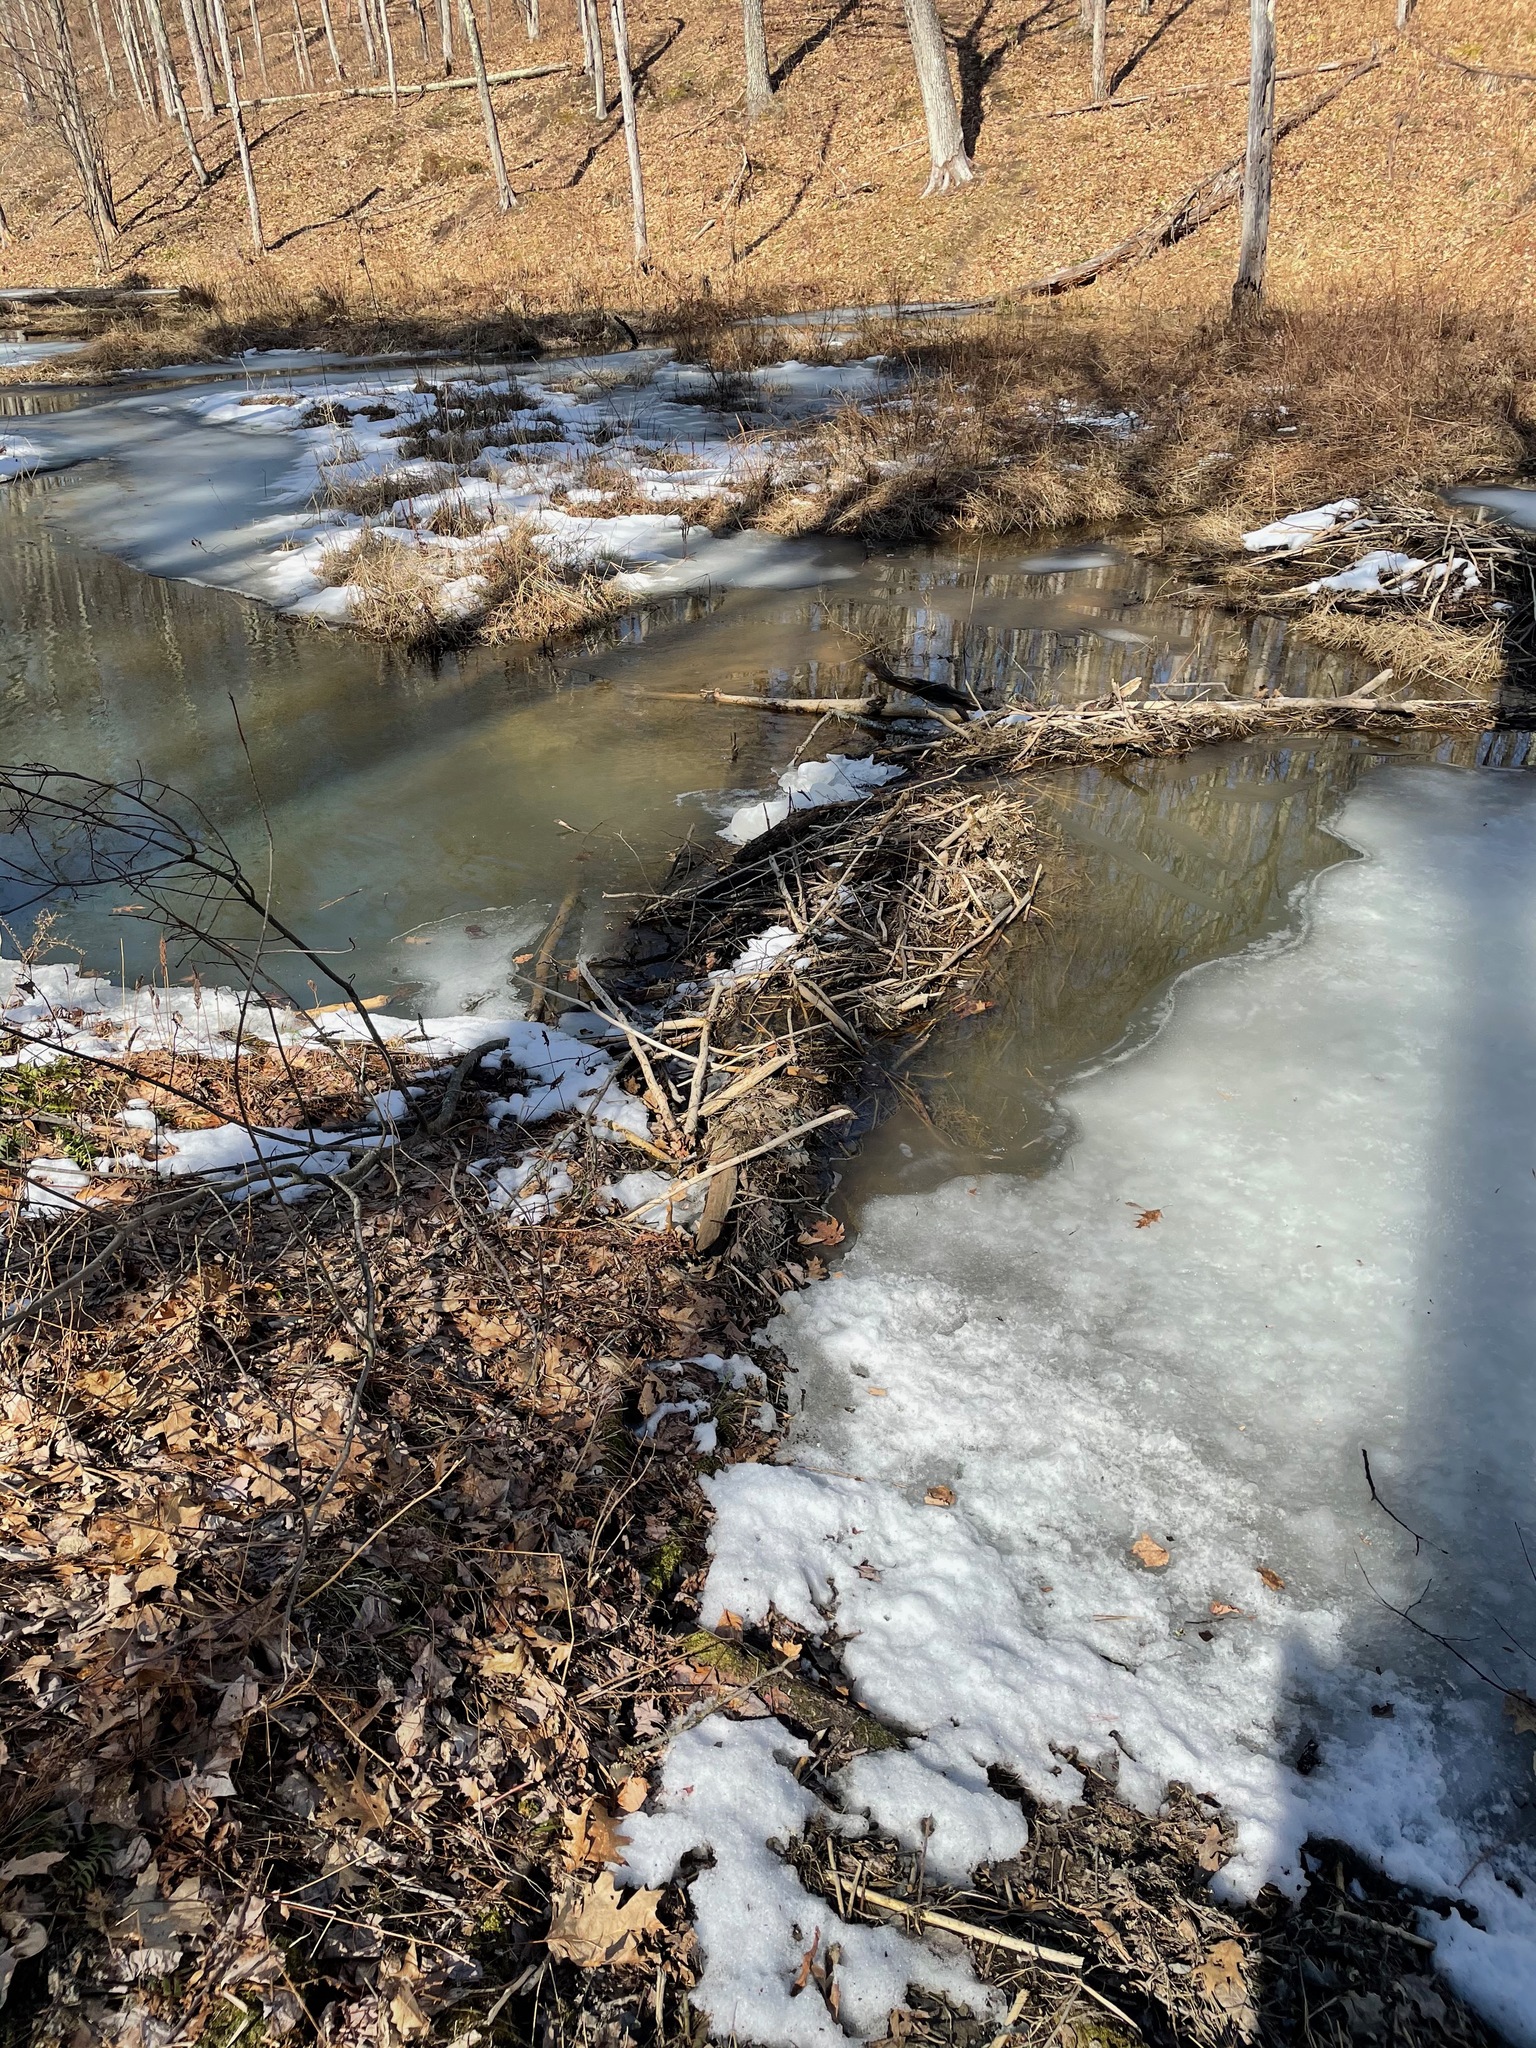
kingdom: Animalia
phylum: Chordata
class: Mammalia
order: Rodentia
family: Castoridae
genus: Castor
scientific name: Castor canadensis
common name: American beaver
